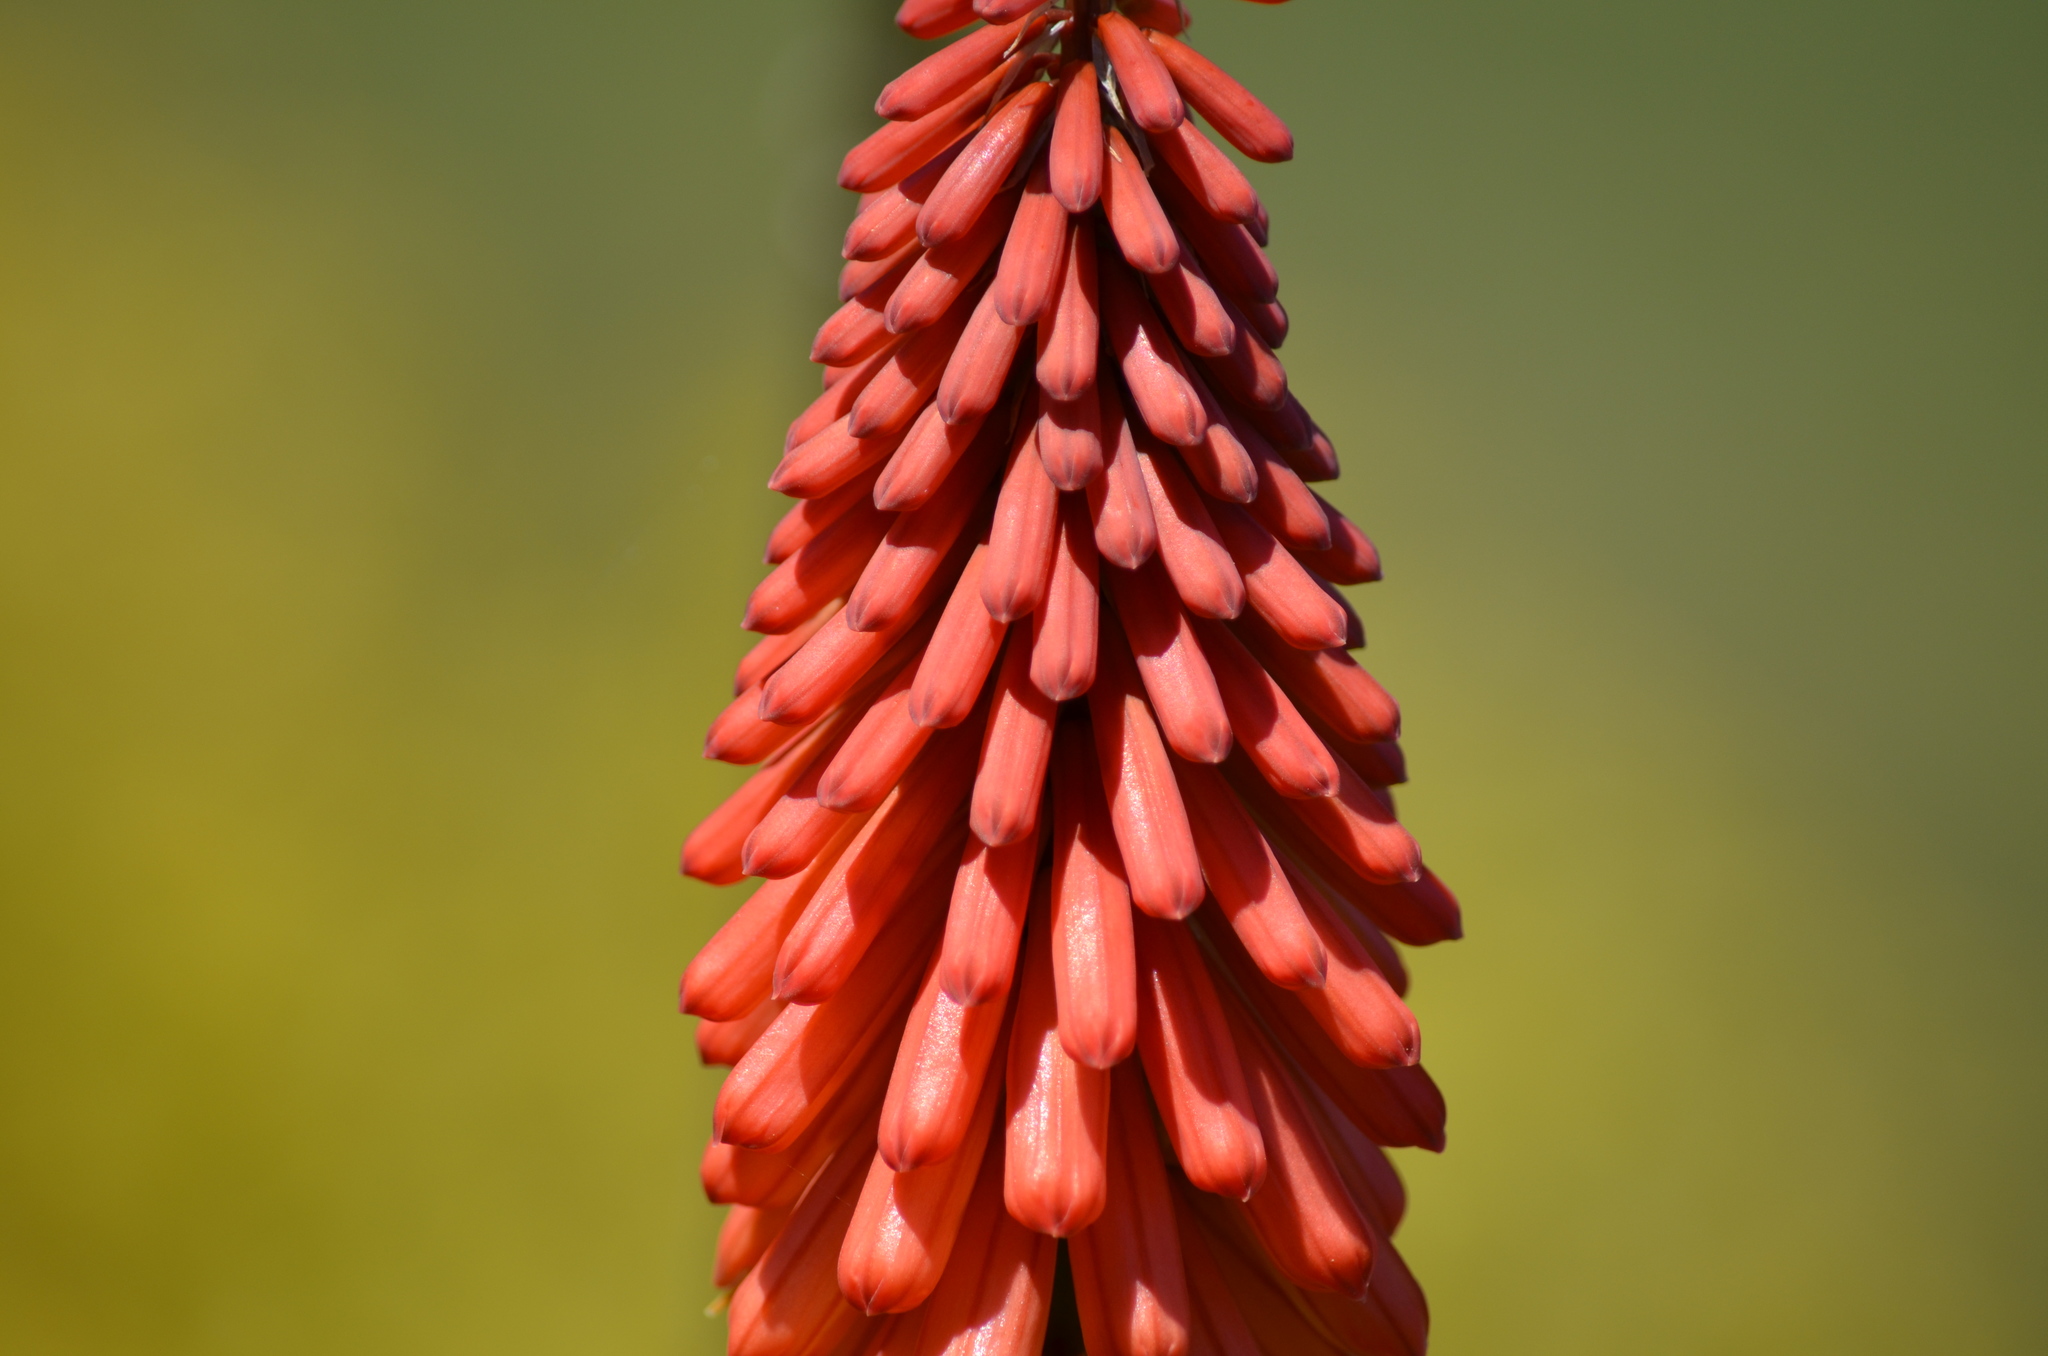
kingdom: Plantae
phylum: Tracheophyta
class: Liliopsida
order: Asparagales
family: Asphodelaceae
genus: Kniphofia
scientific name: Kniphofia uvaria
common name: Red-hot-poker
